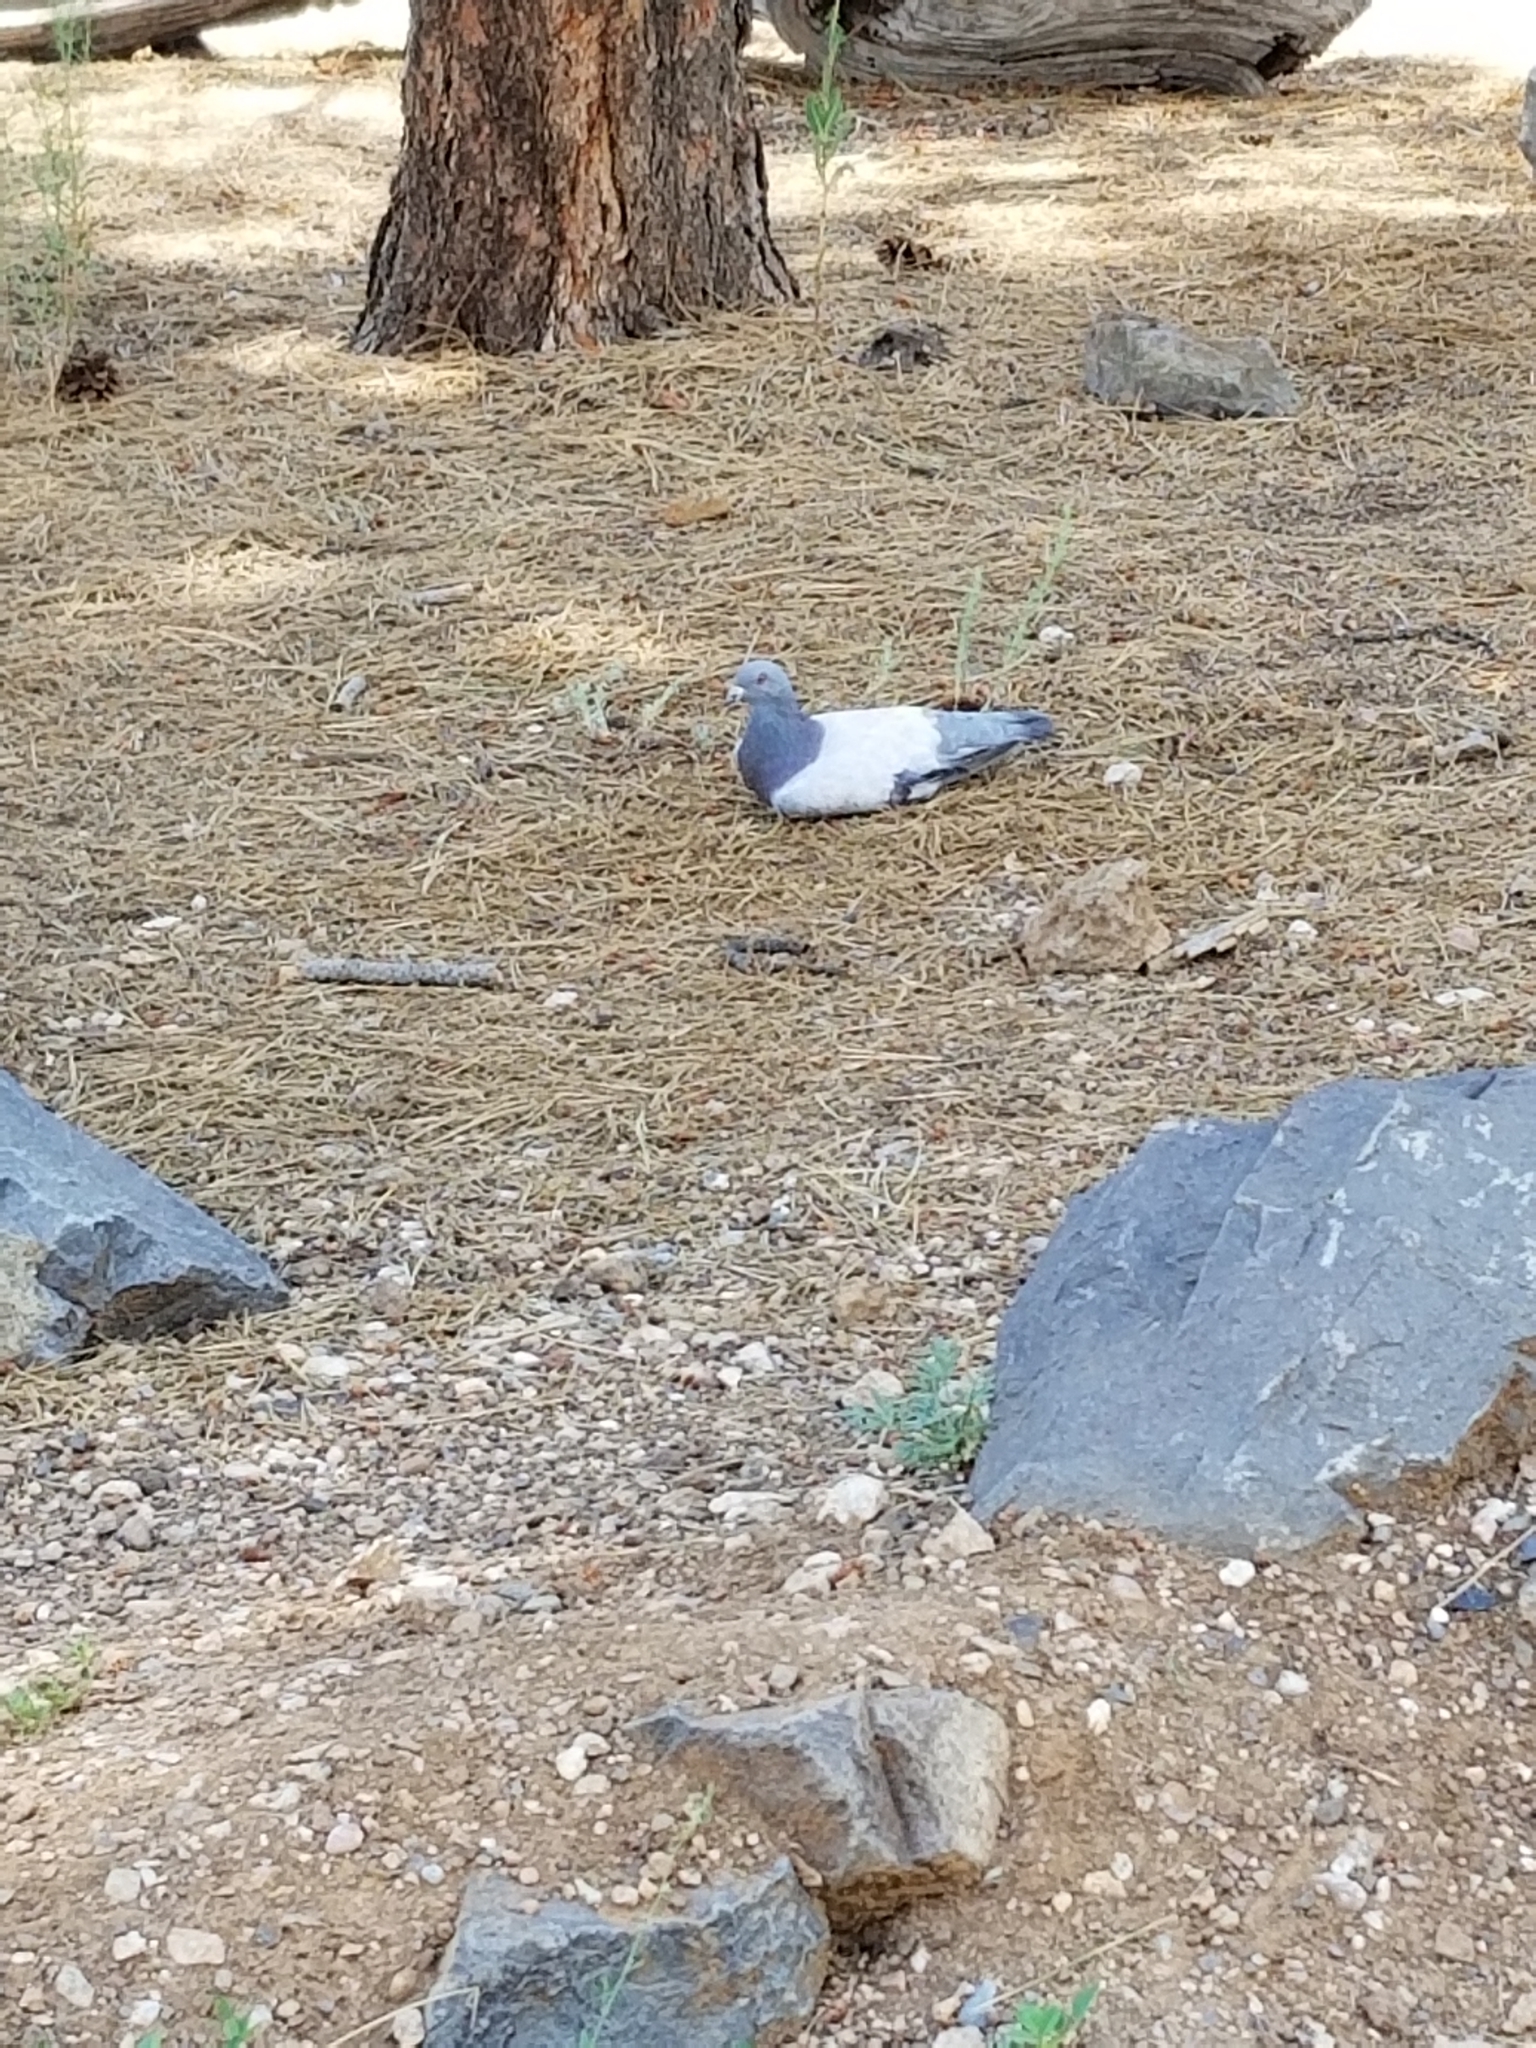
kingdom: Animalia
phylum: Chordata
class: Aves
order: Columbiformes
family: Columbidae
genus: Columba
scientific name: Columba livia
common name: Rock pigeon
